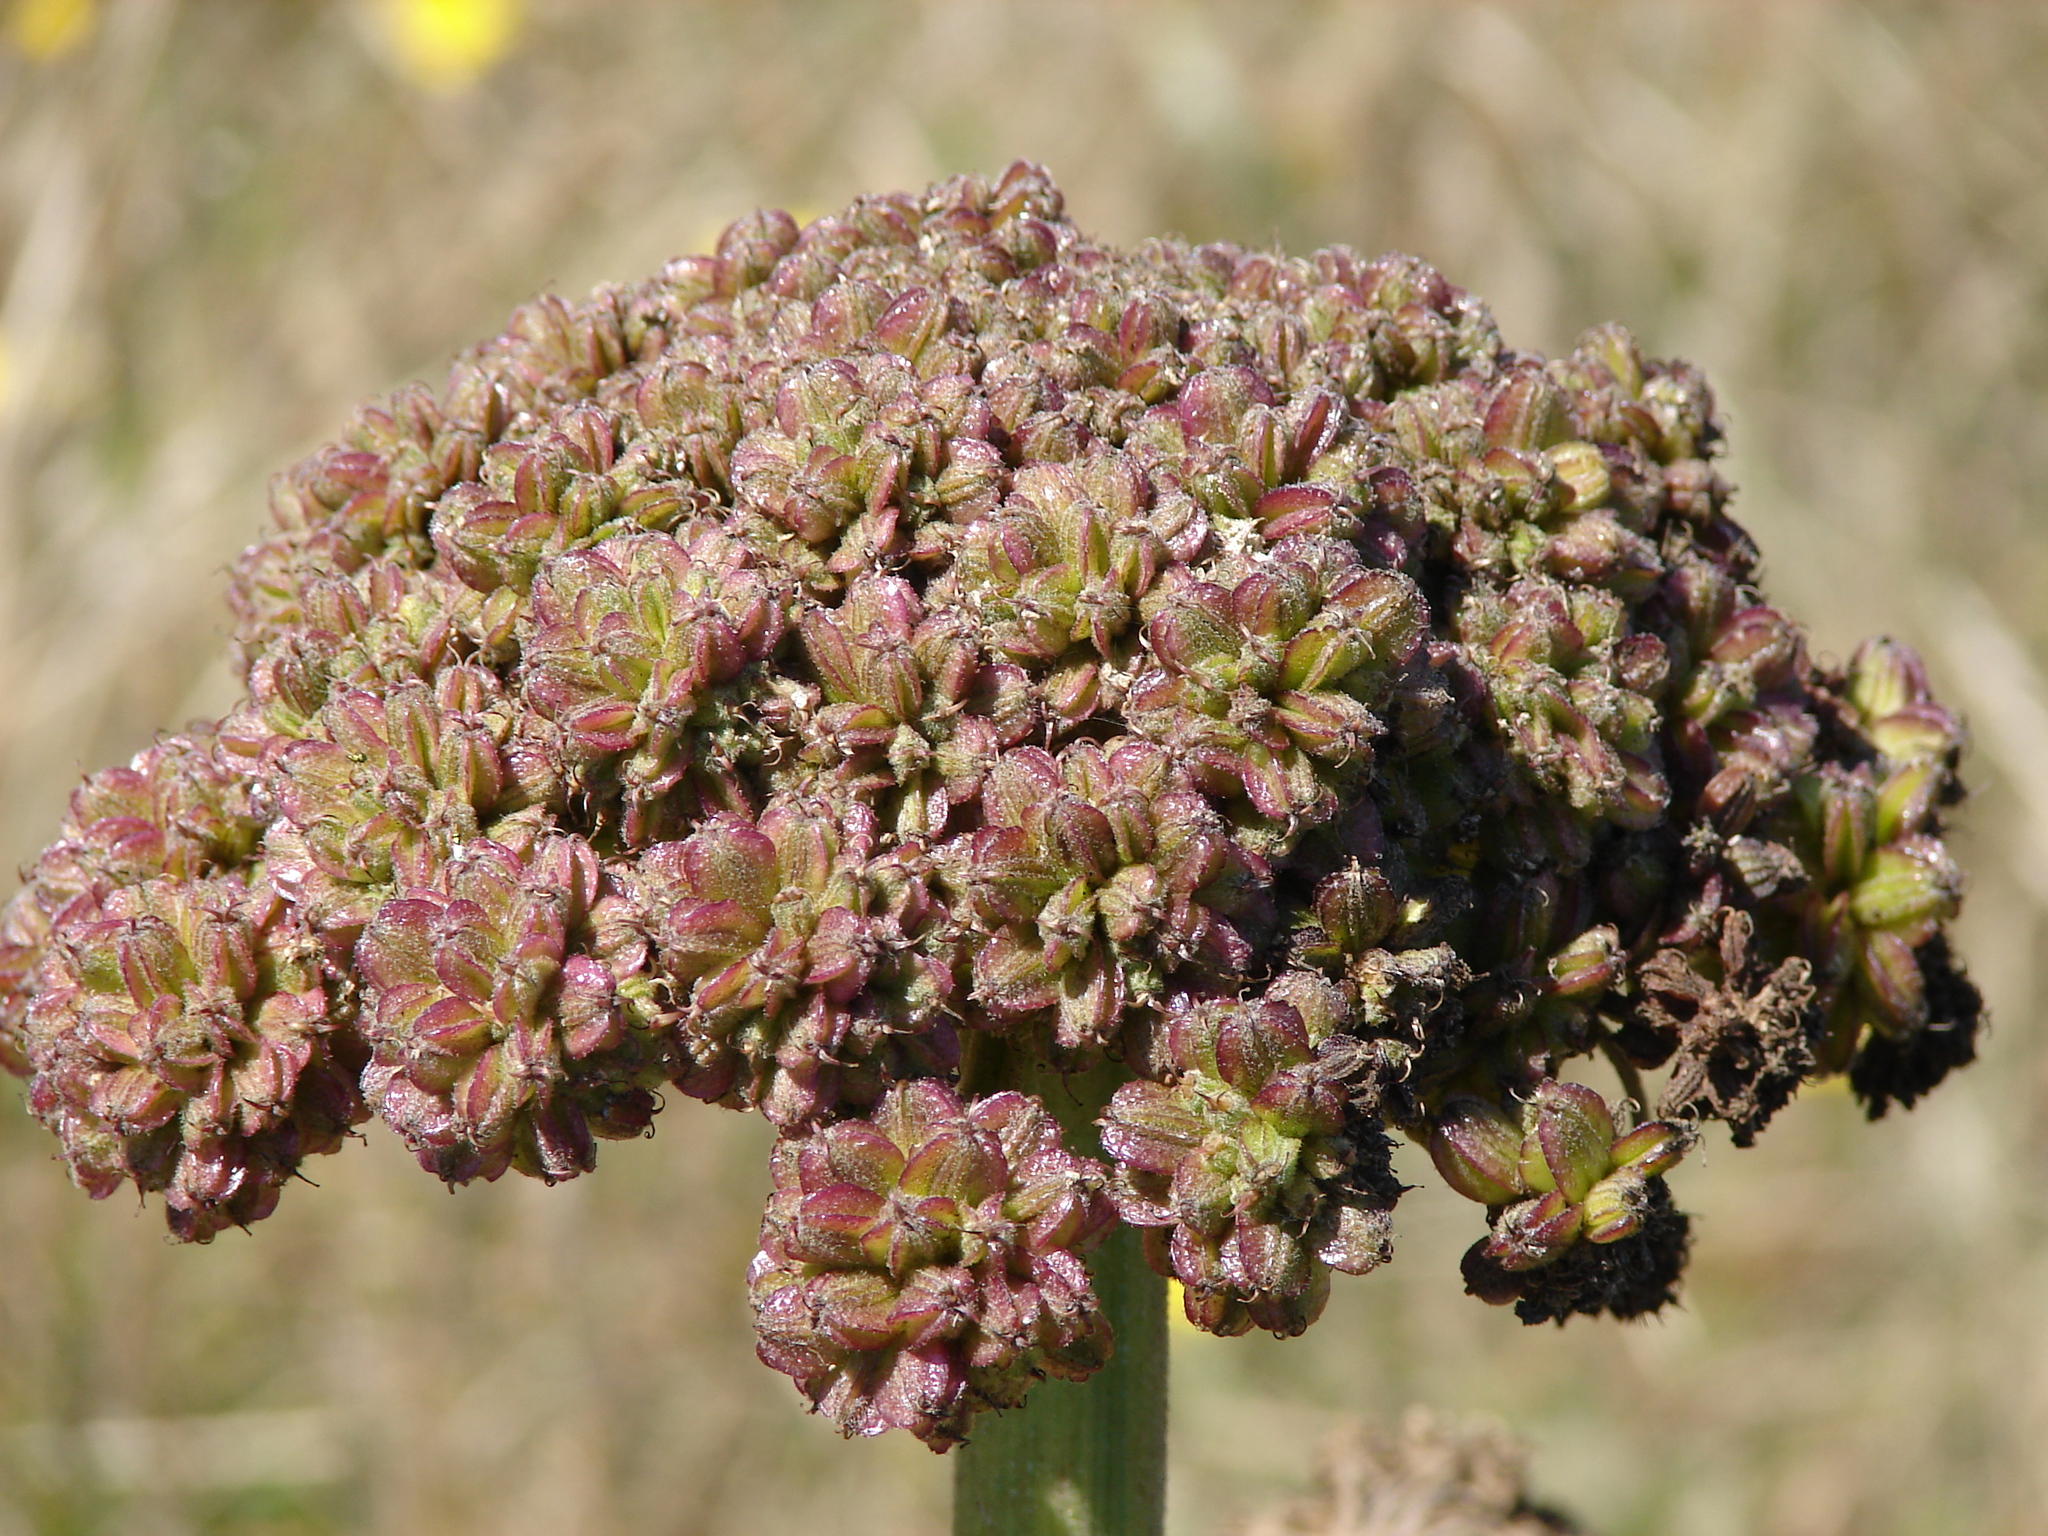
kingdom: Plantae
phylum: Tracheophyta
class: Magnoliopsida
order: Apiales
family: Apiaceae
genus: Angelica
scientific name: Angelica hendersonii
